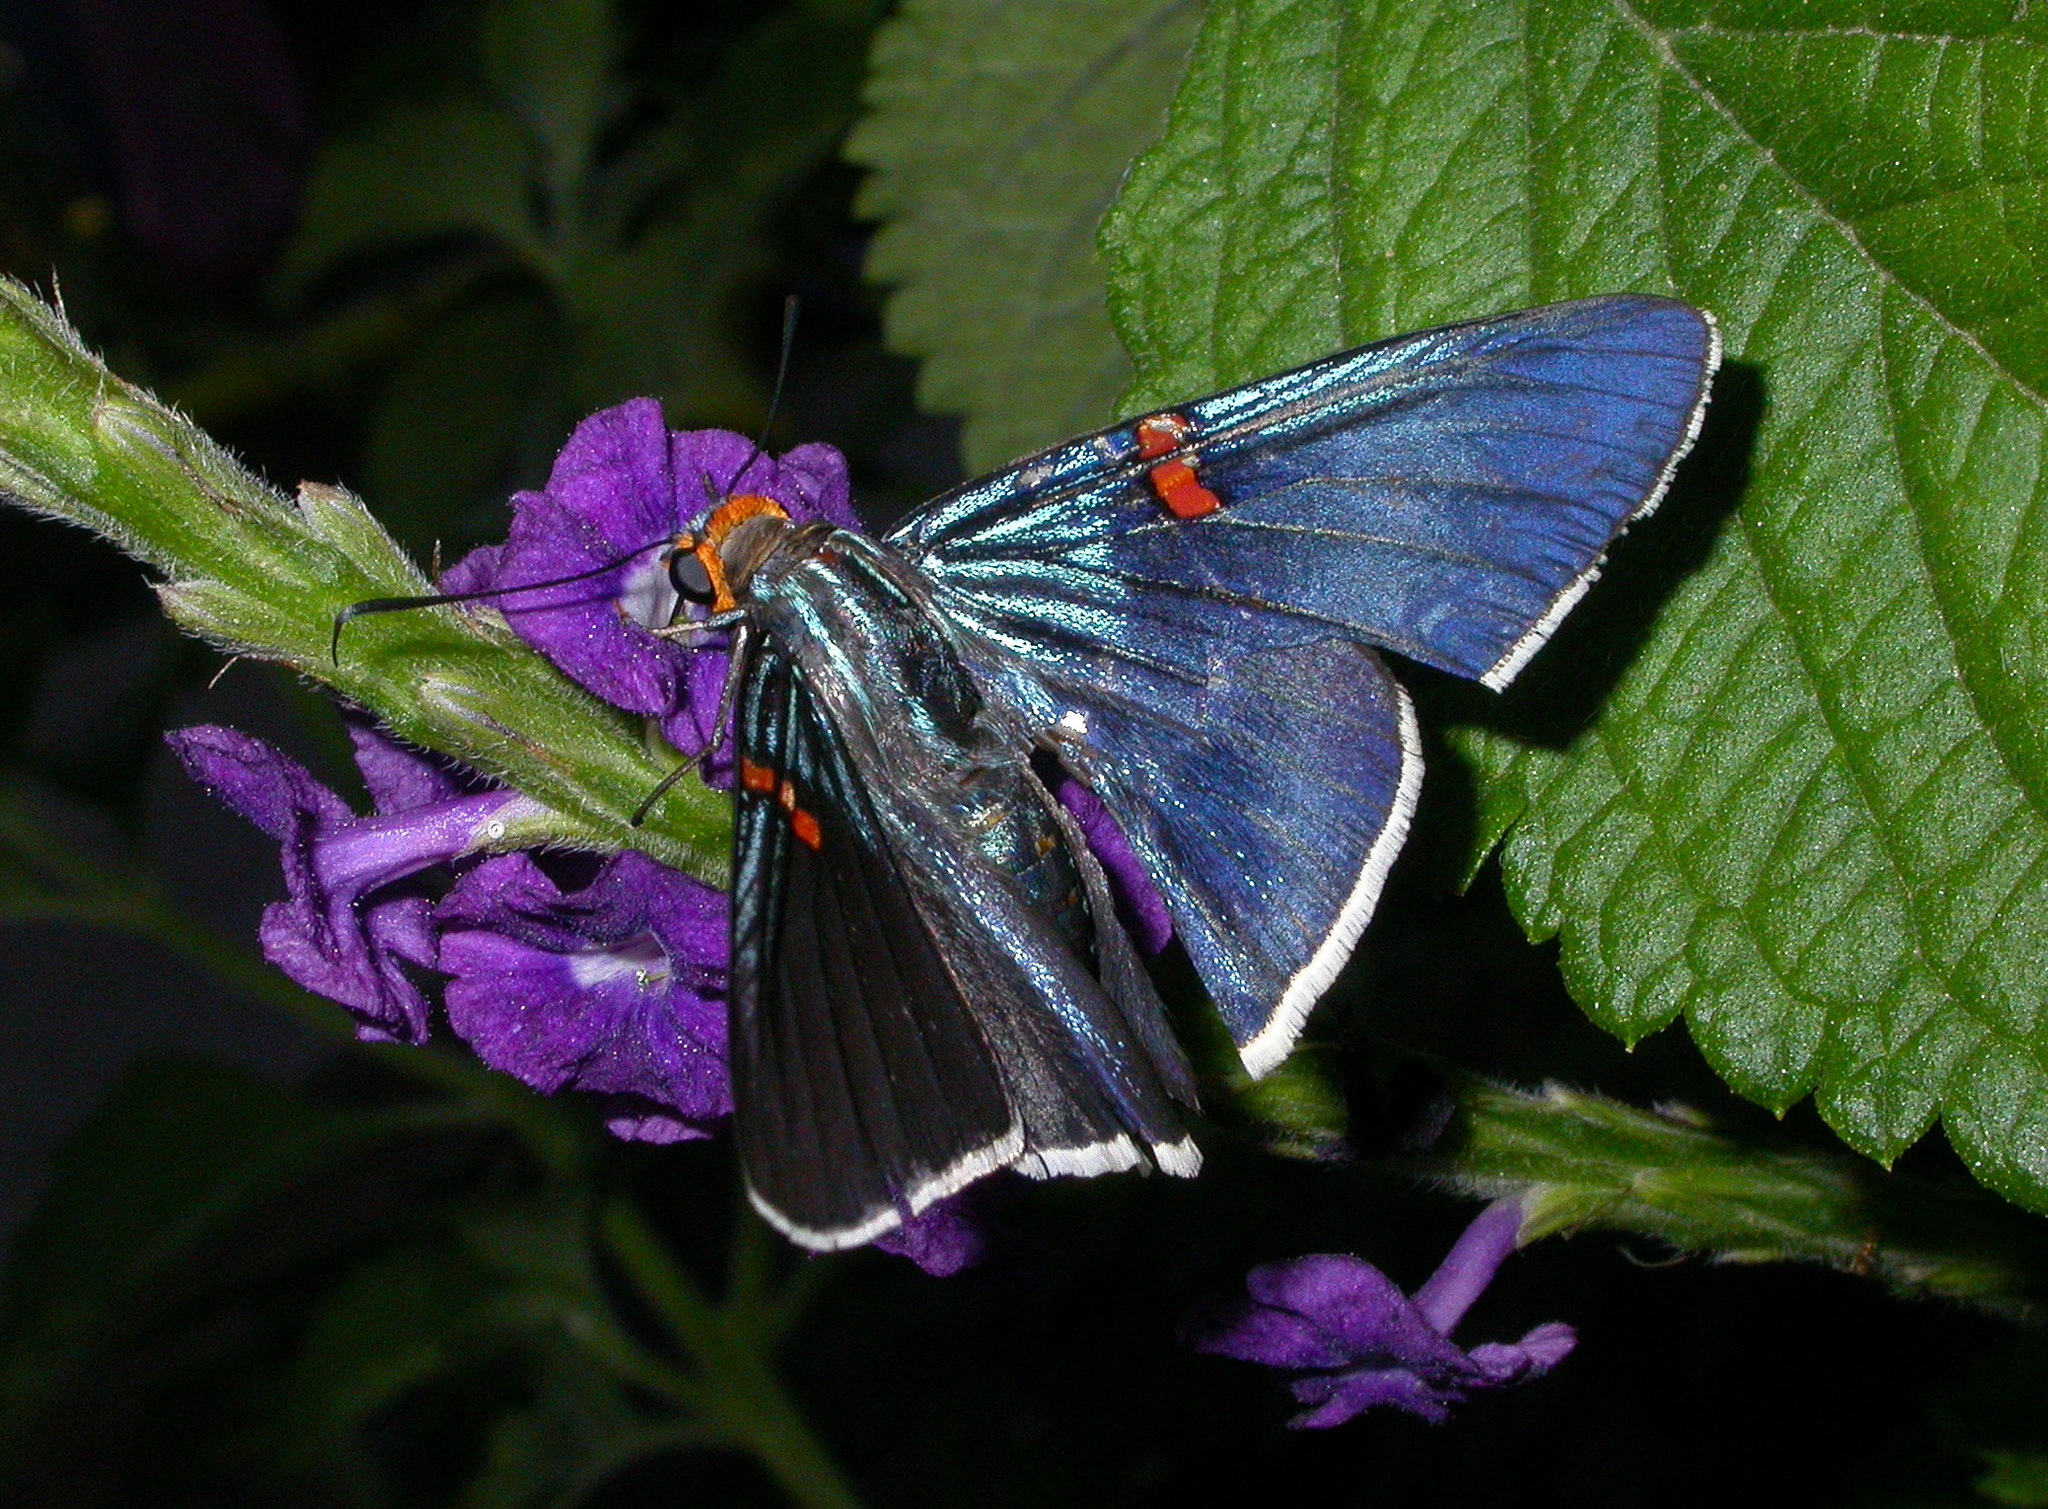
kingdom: Animalia
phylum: Arthropoda
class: Insecta
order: Lepidoptera
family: Hesperiidae
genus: Phocides
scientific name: Phocides lilea
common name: Guava skipper
